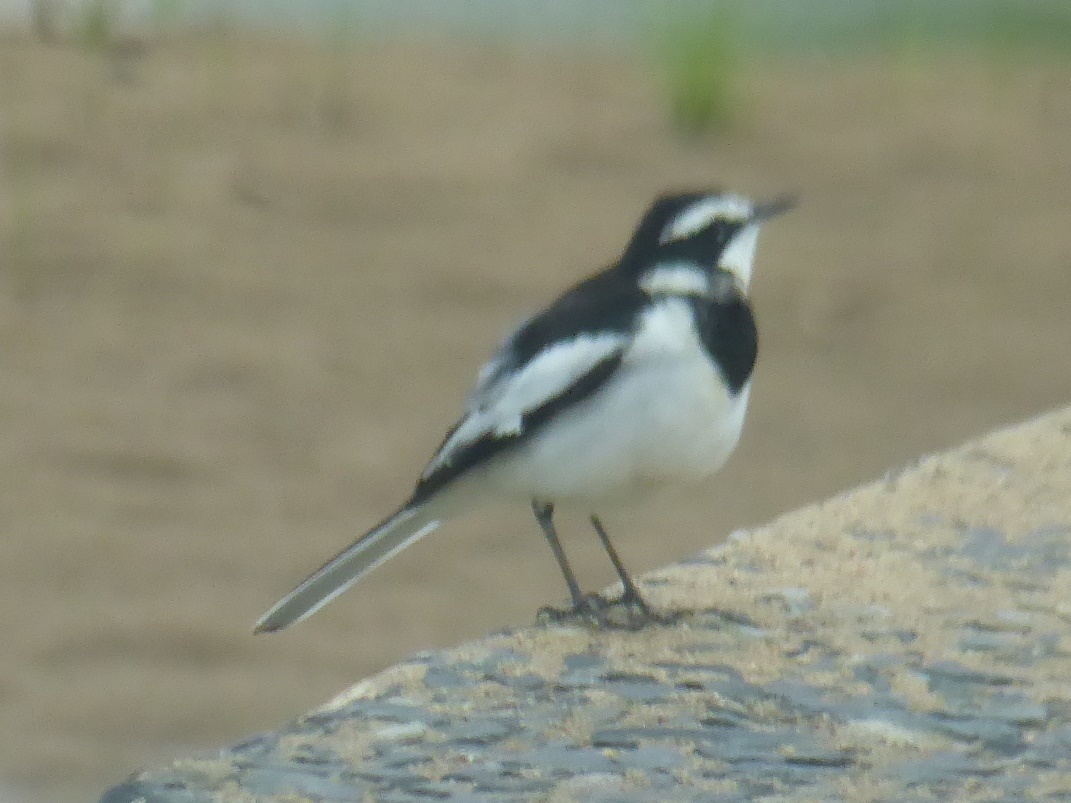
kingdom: Animalia
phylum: Chordata
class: Aves
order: Passeriformes
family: Motacillidae
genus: Motacilla
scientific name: Motacilla aguimp
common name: African pied wagtail
